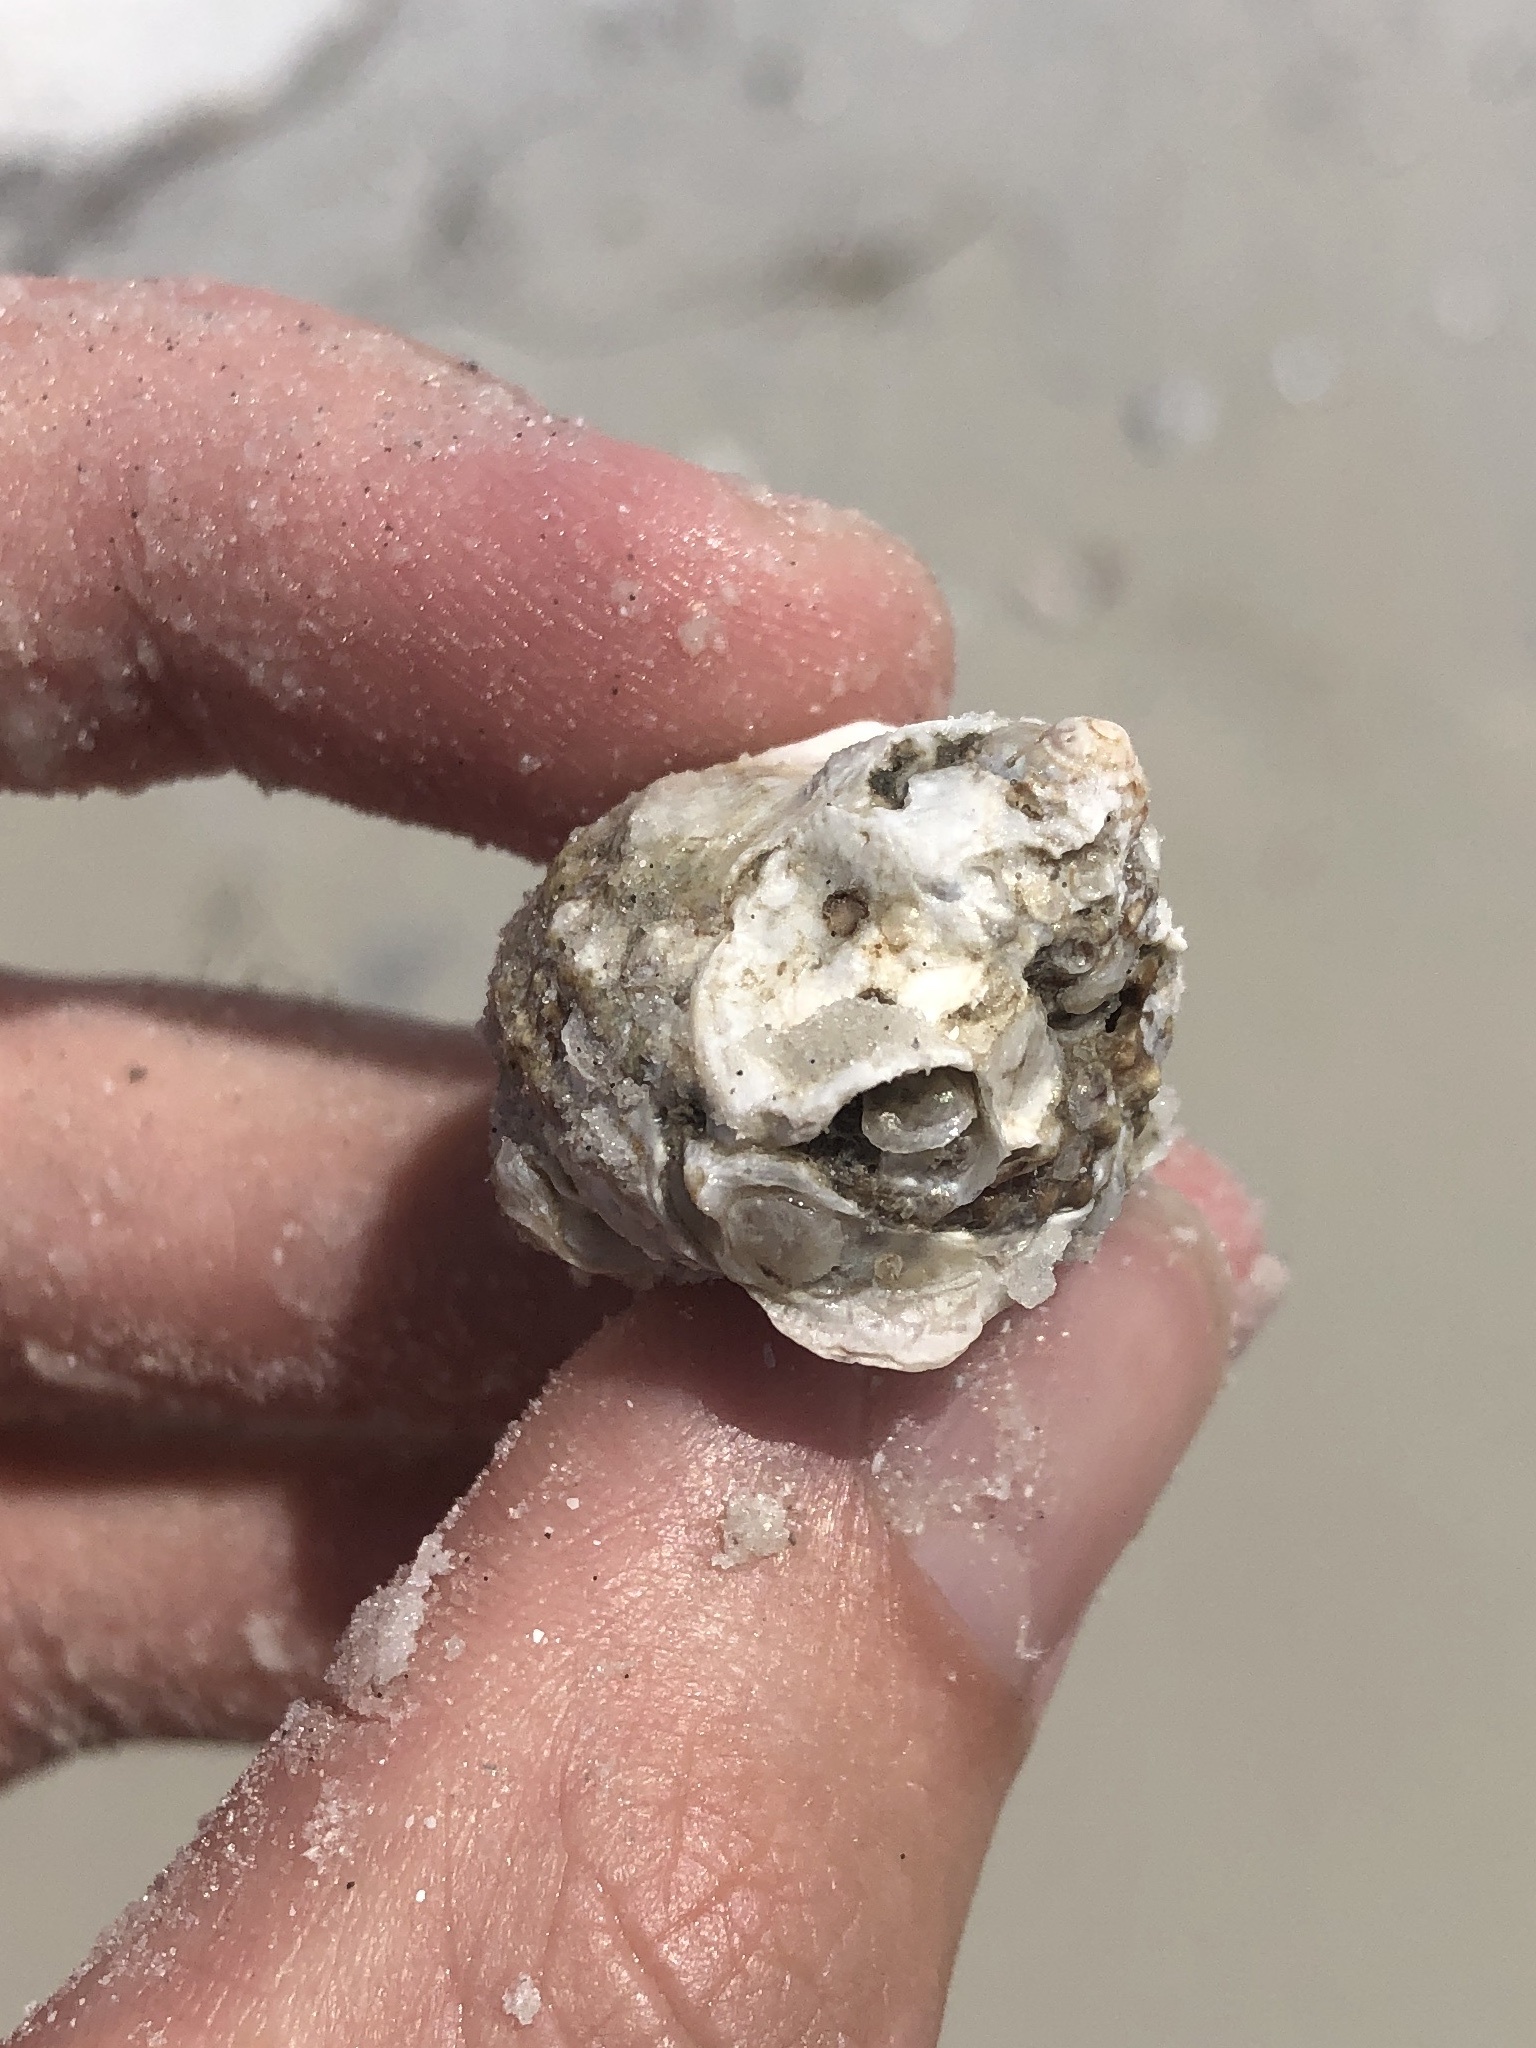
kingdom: Animalia
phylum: Mollusca
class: Gastropoda
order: Trochida
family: Turbinidae
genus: Turbo
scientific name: Turbo castanea
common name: Chestnut turban
